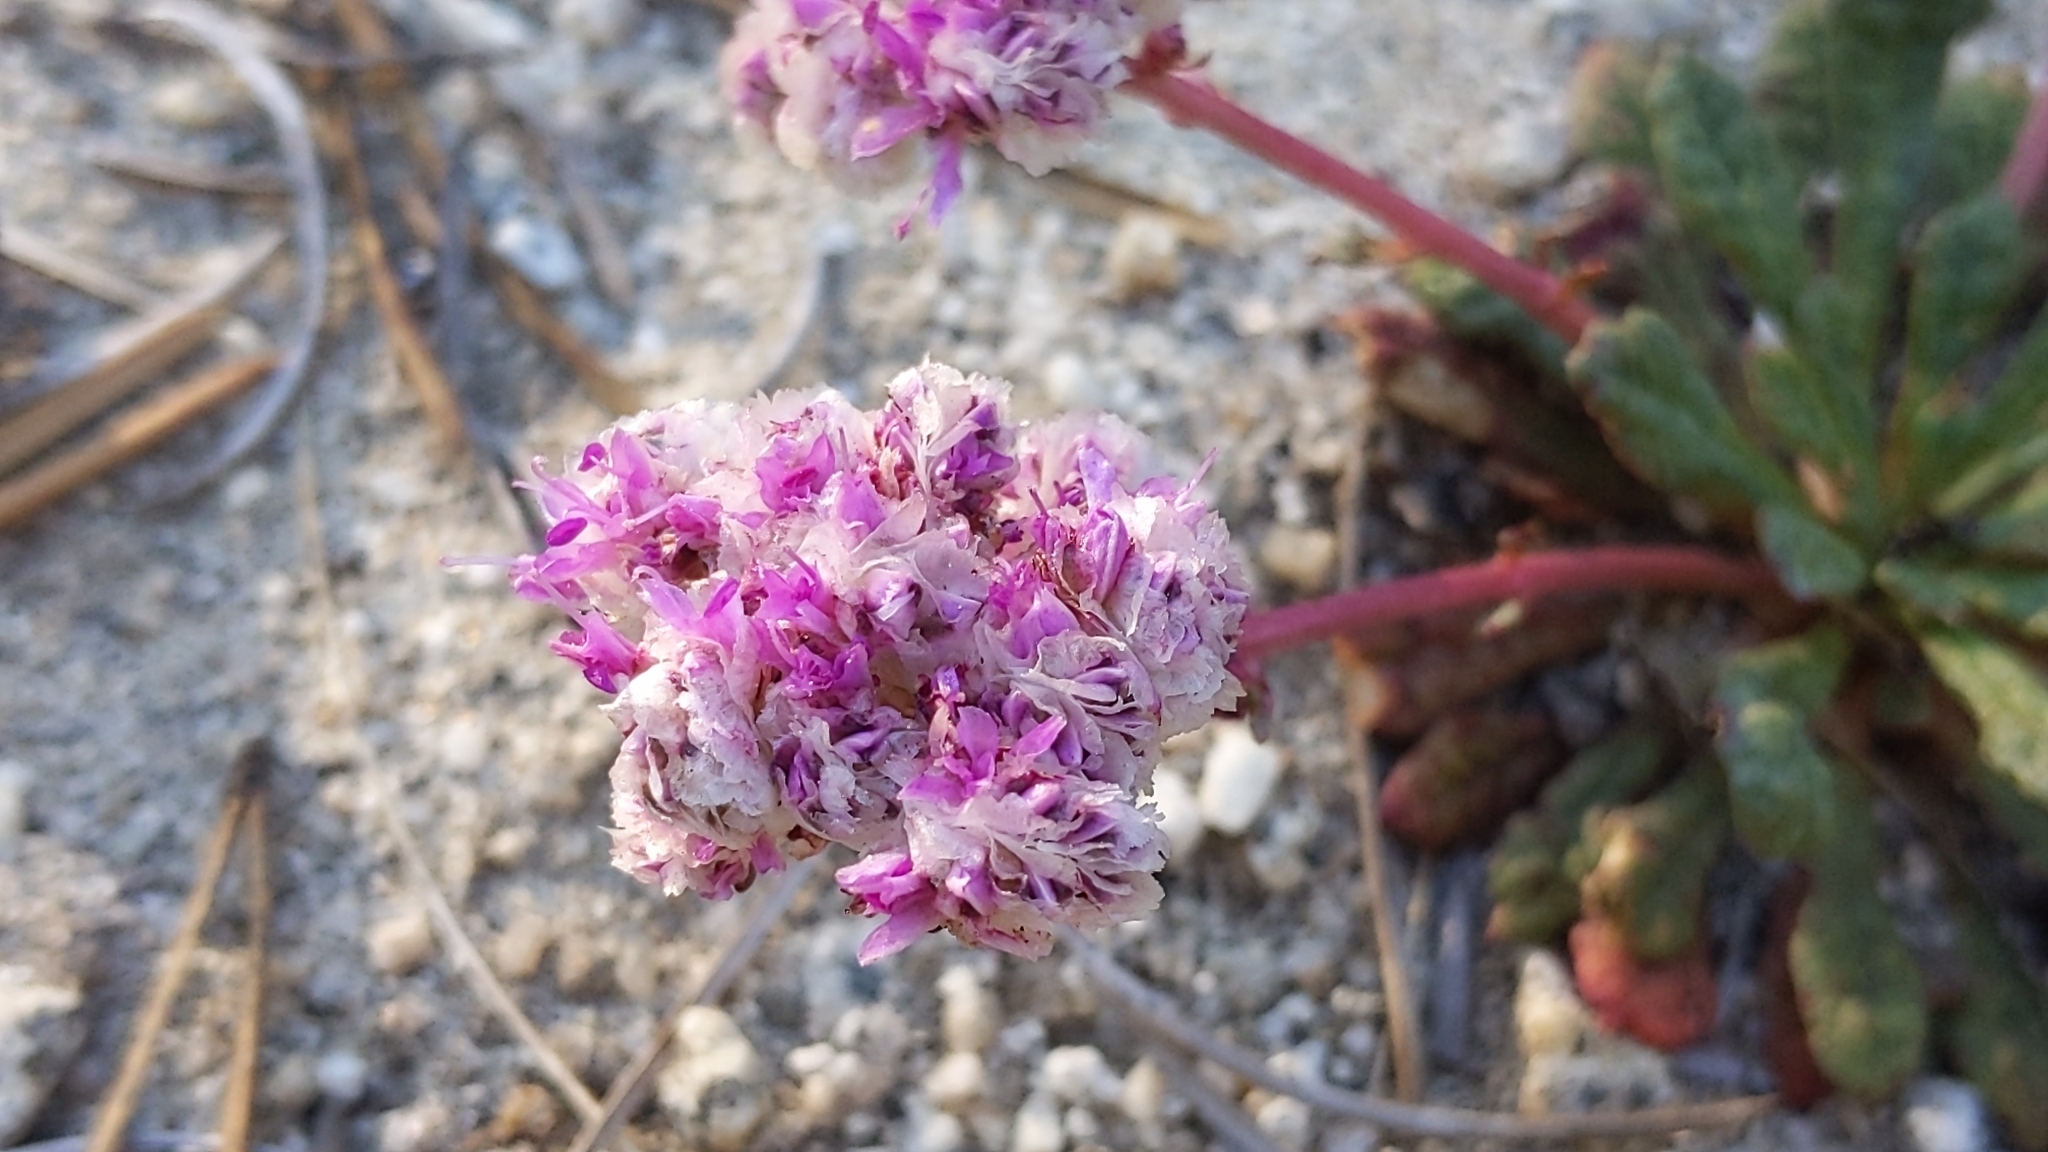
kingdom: Plantae
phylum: Tracheophyta
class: Magnoliopsida
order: Caryophyllales
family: Montiaceae
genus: Calyptridium
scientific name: Calyptridium monospermum
